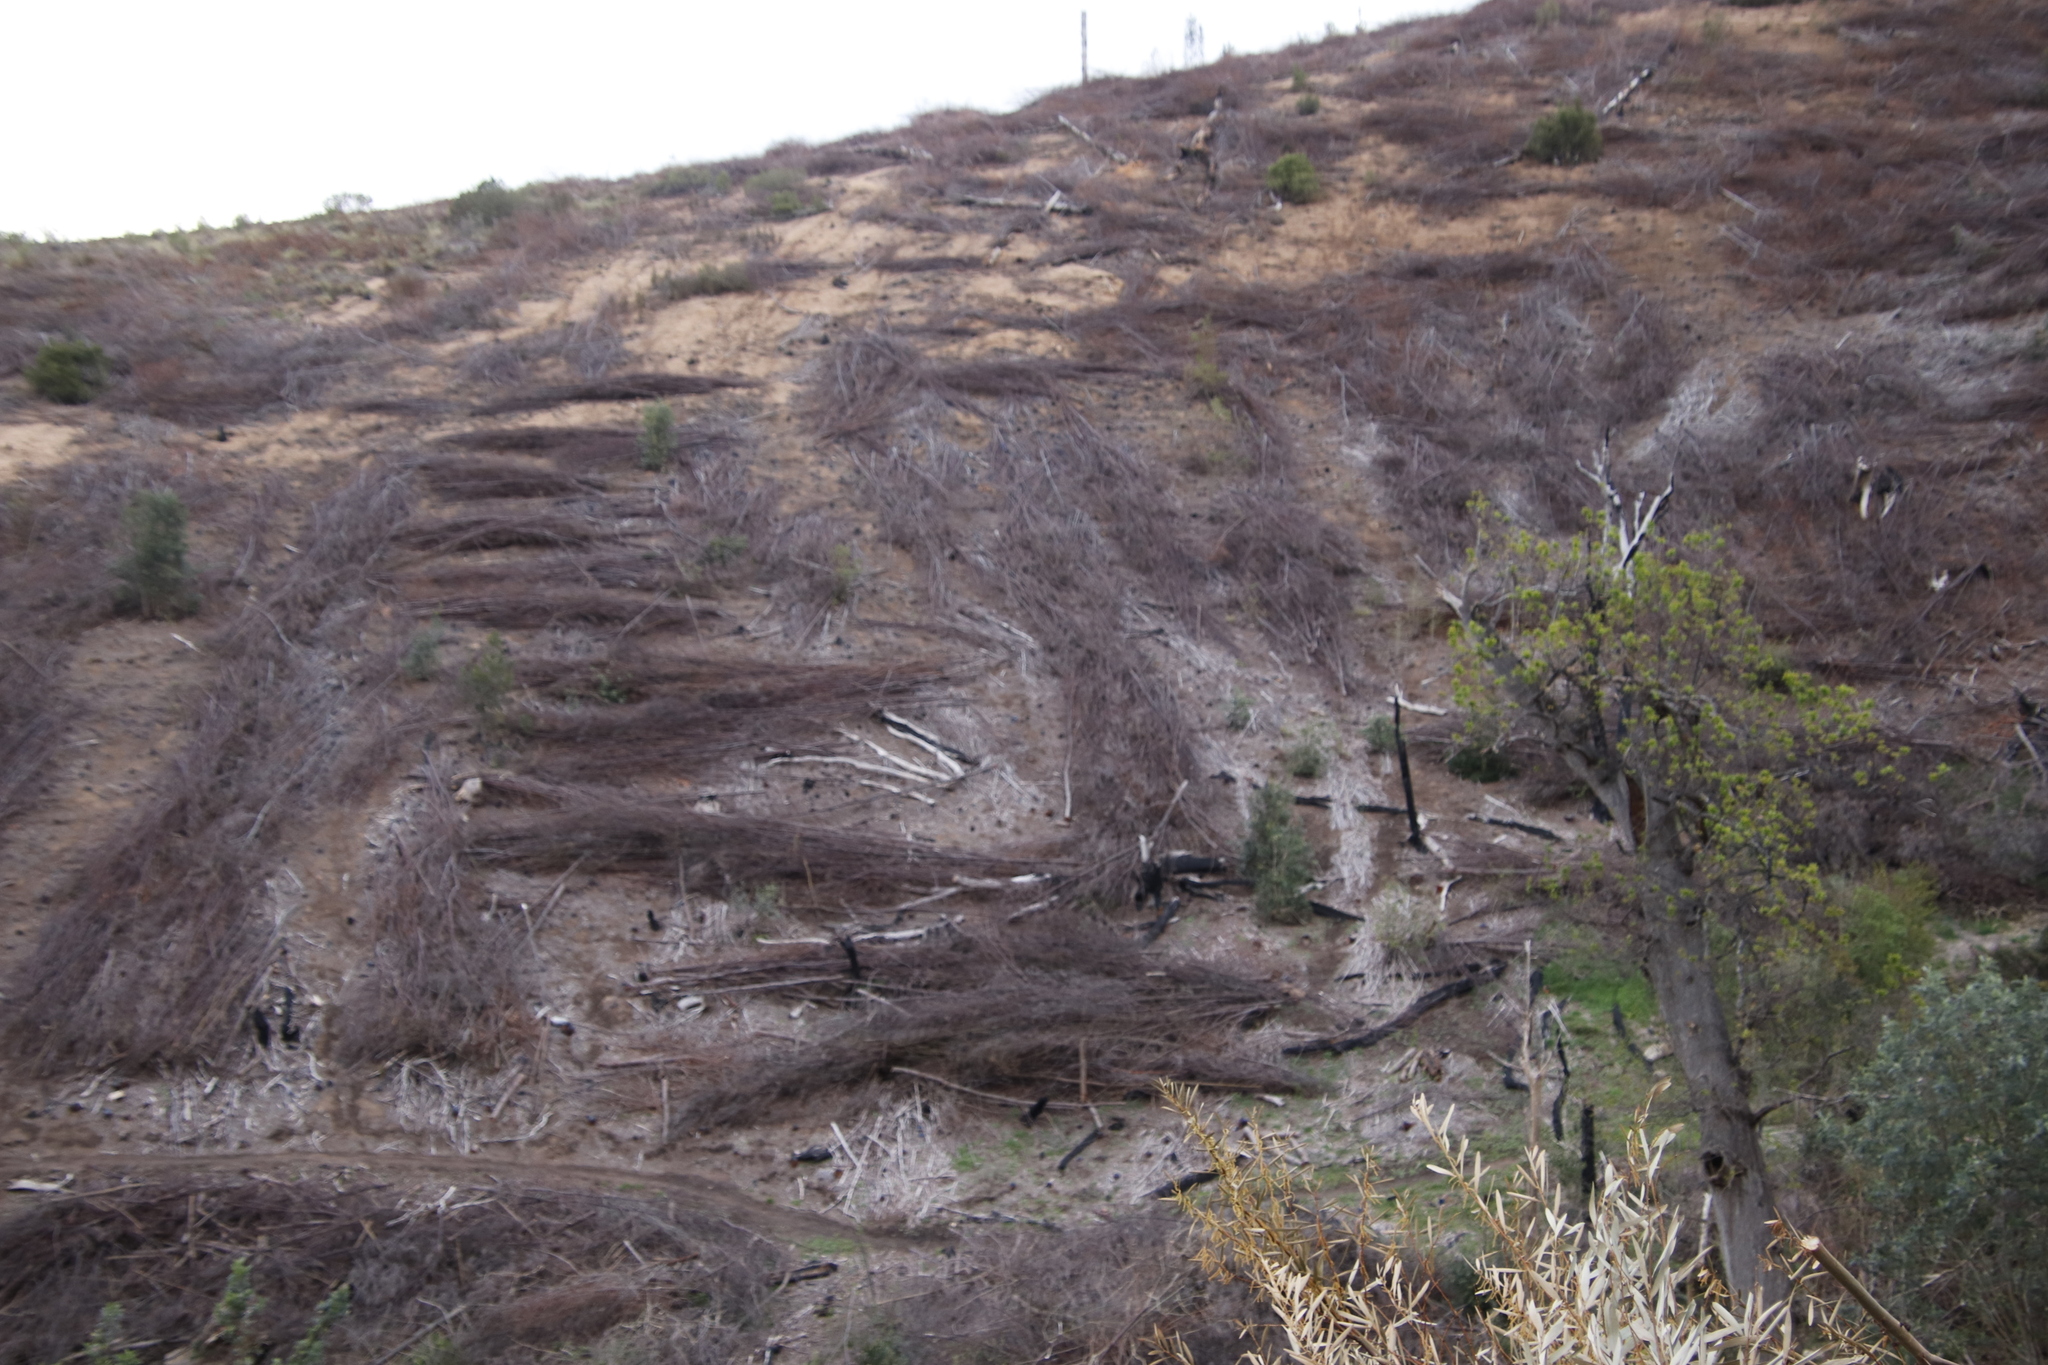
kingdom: Plantae
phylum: Tracheophyta
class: Magnoliopsida
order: Fabales
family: Fabaceae
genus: Paraserianthes
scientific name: Paraserianthes lophantha
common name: Plume albizia
